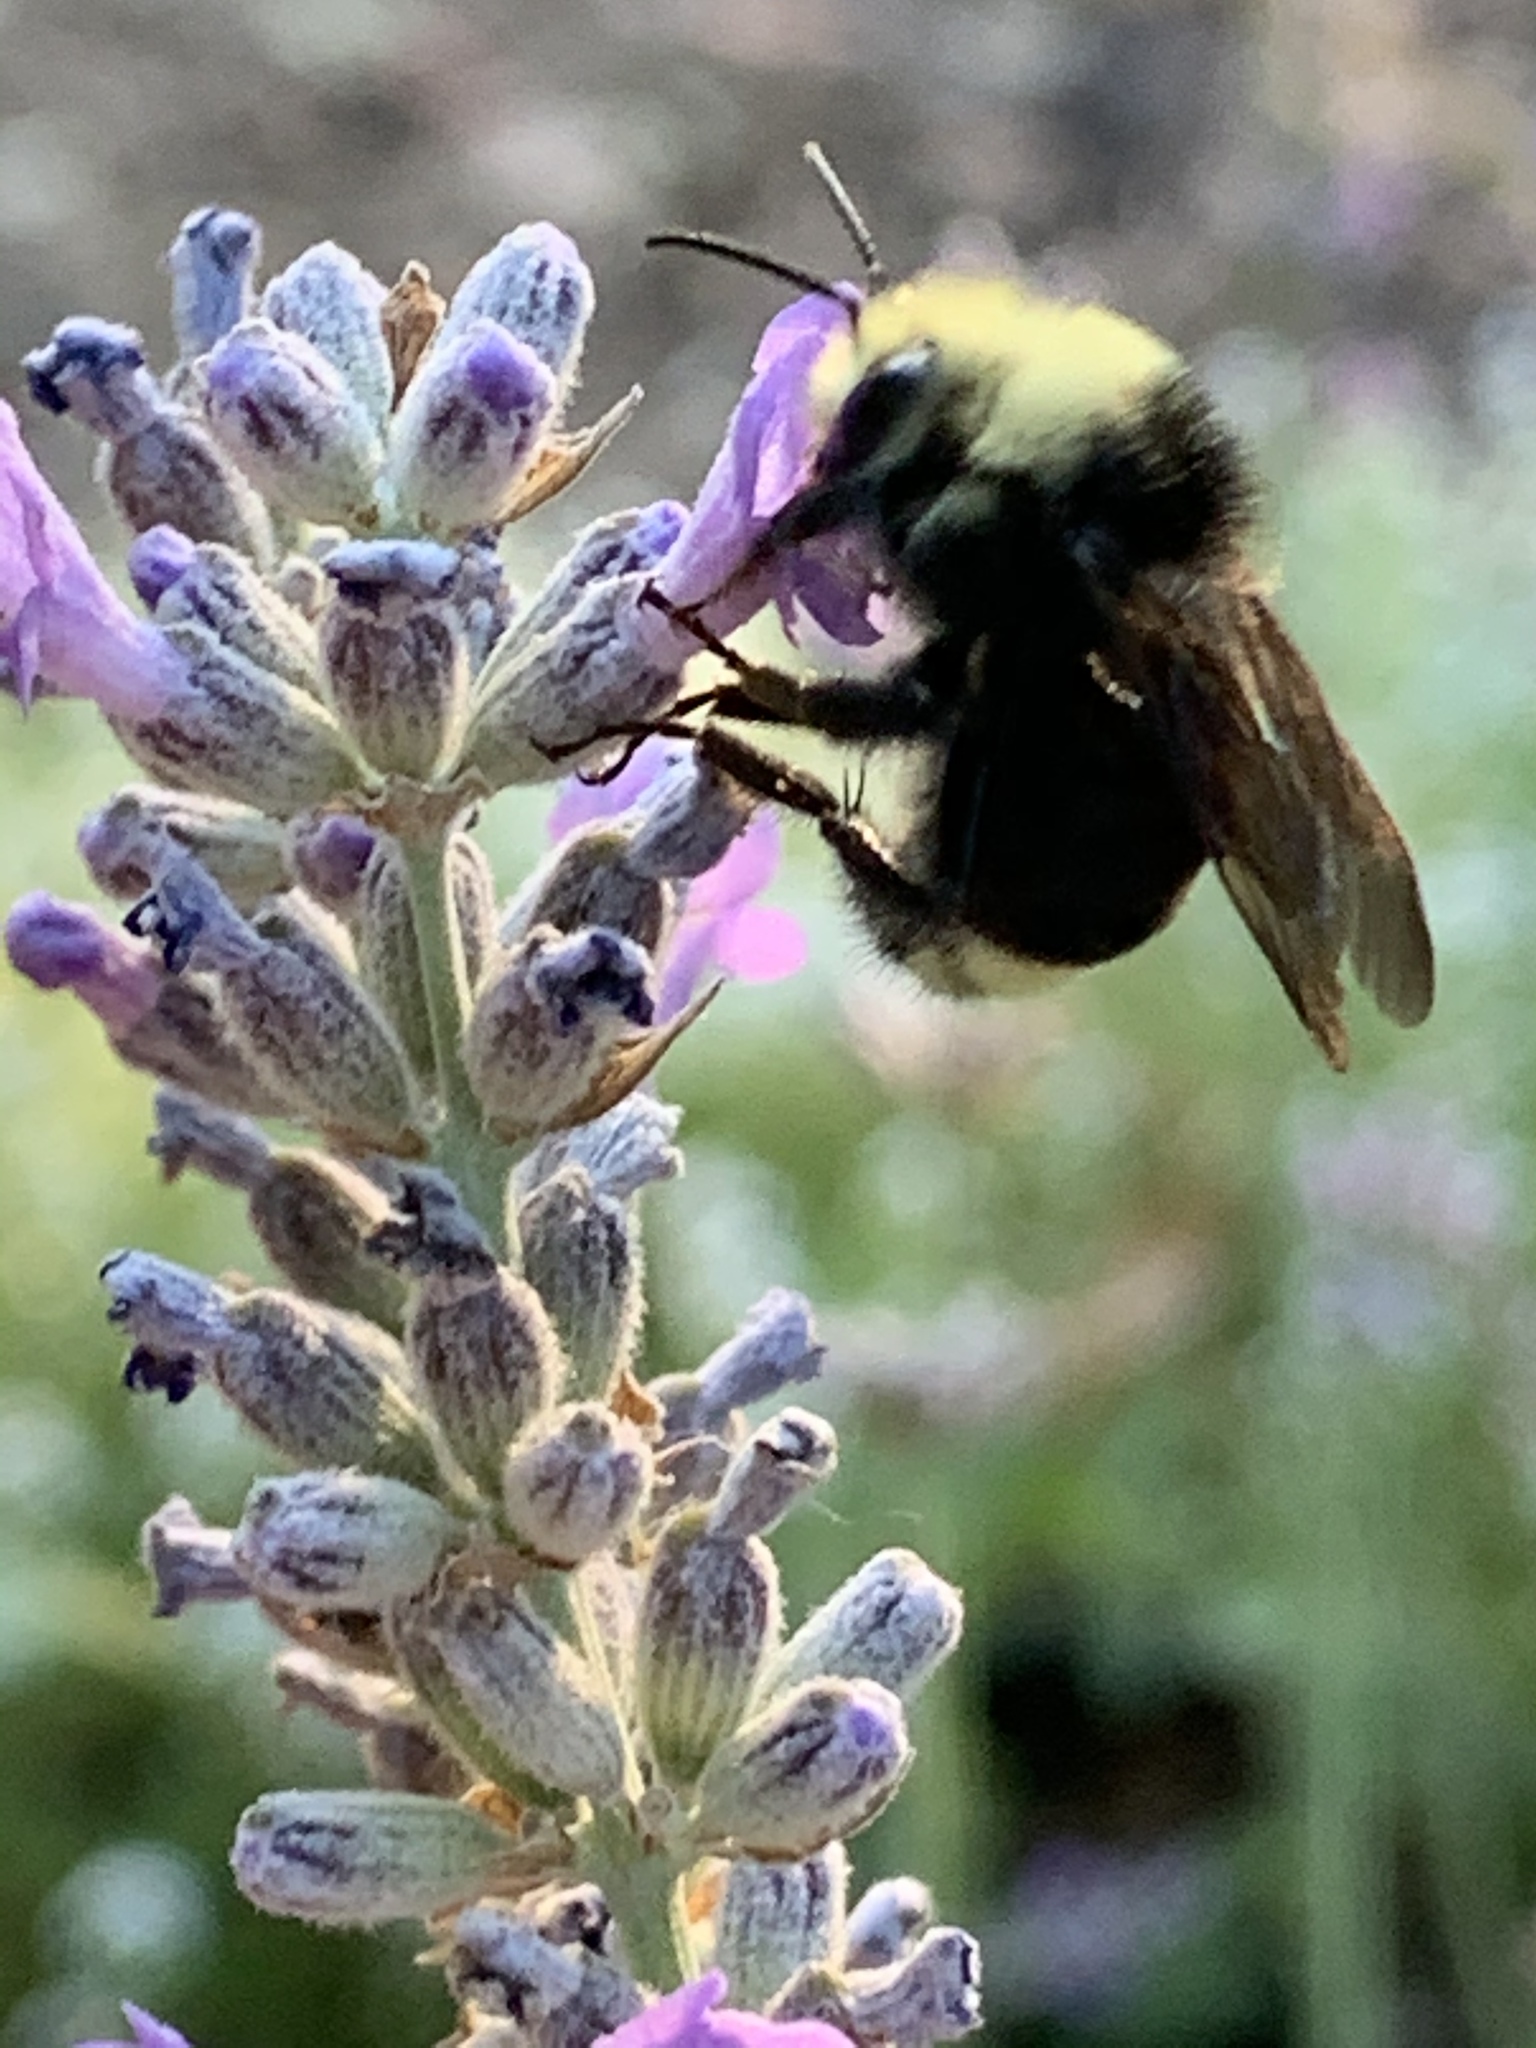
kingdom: Animalia
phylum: Arthropoda
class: Insecta
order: Hymenoptera
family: Apidae
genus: Bombus
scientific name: Bombus vosnesenskii
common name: Vosnesensky bumble bee
